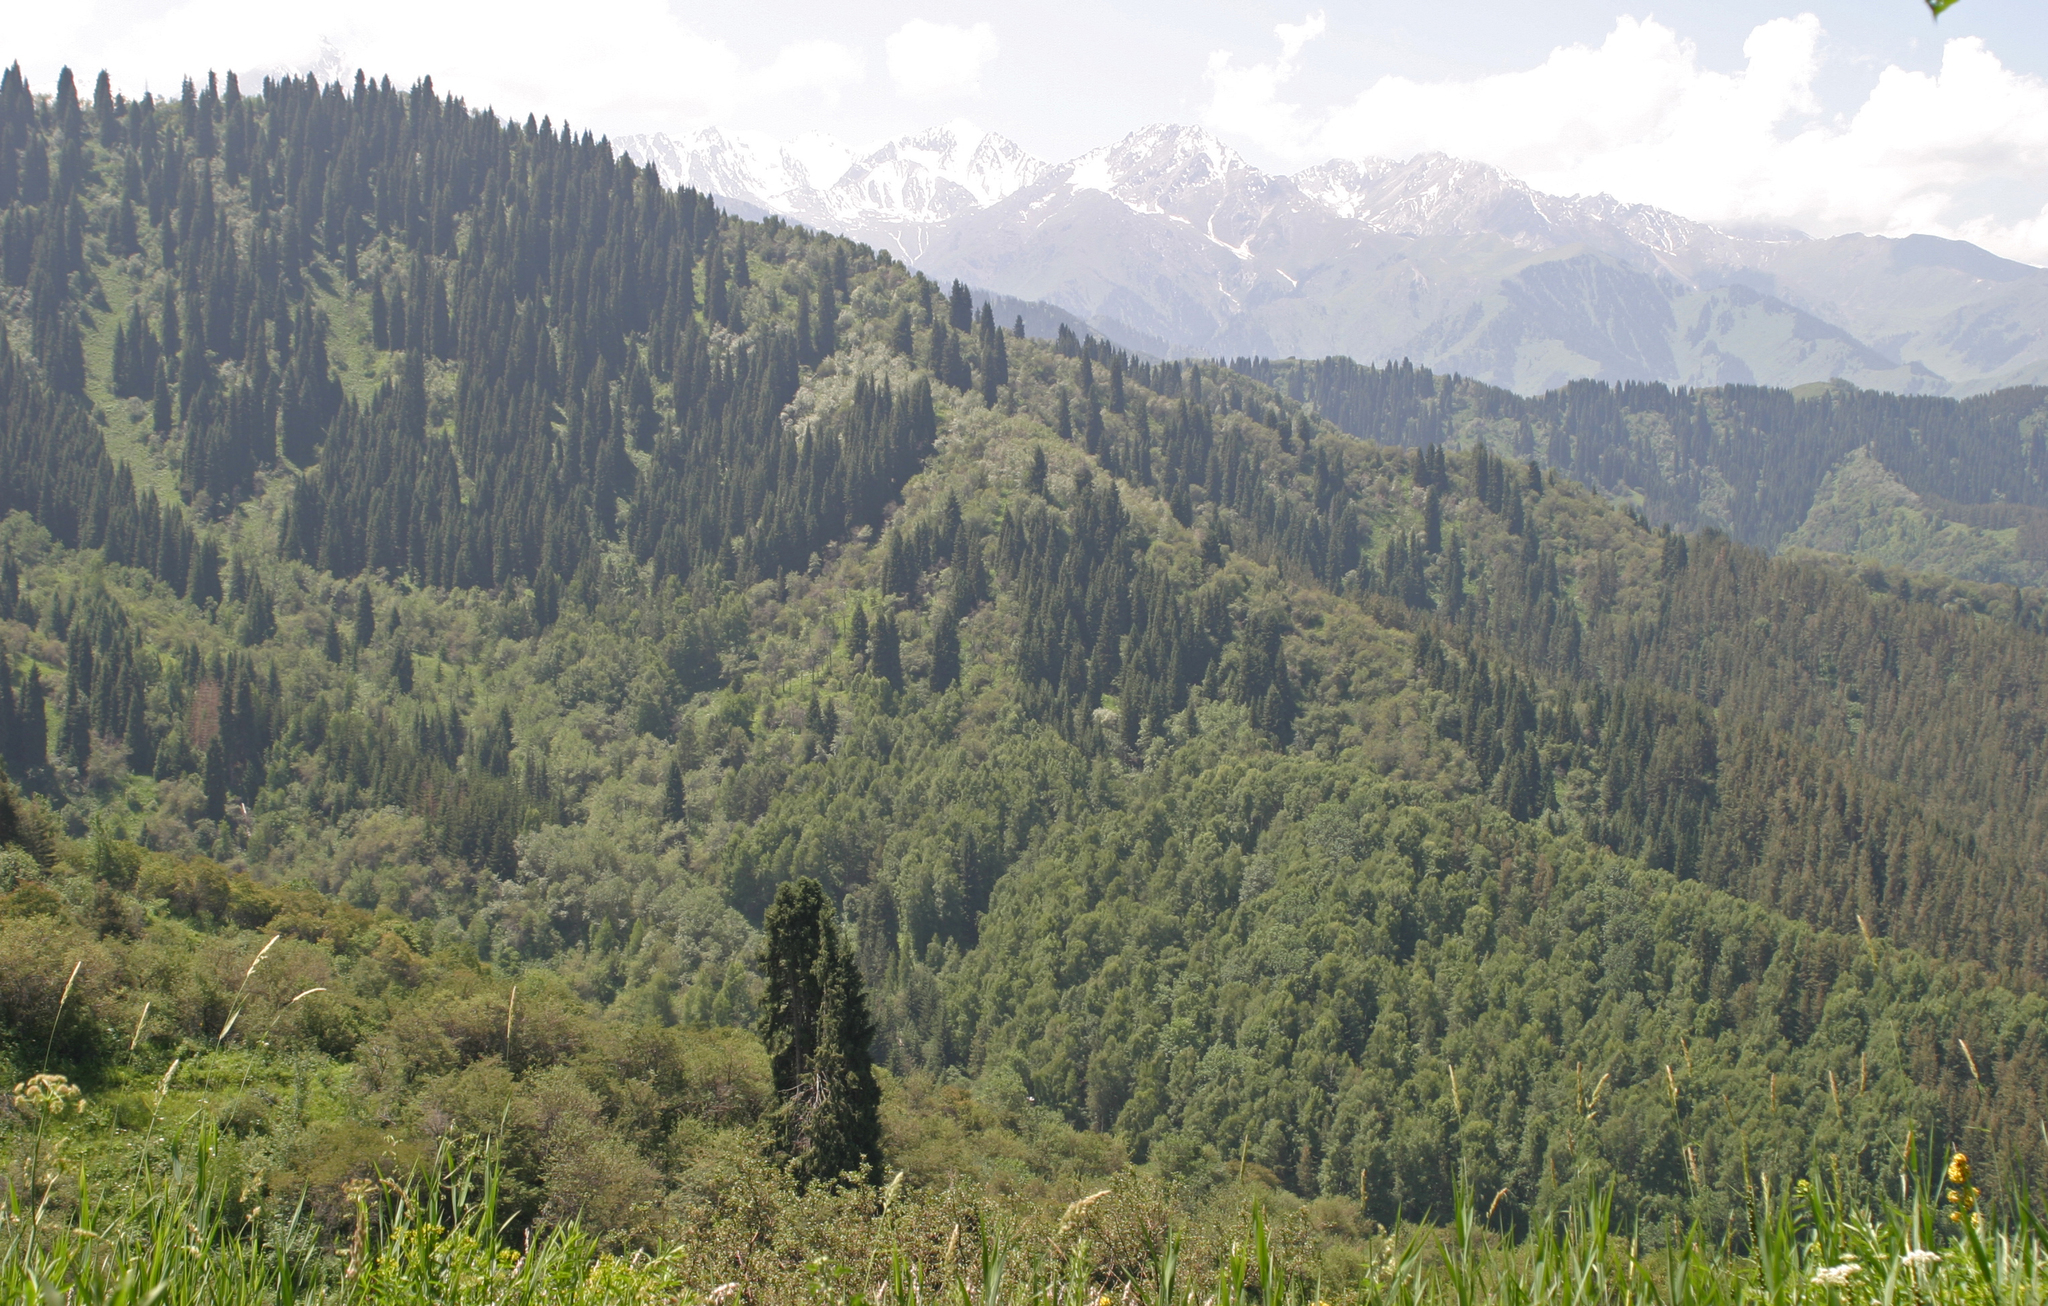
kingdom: Plantae
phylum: Tracheophyta
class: Pinopsida
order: Pinales
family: Pinaceae
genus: Picea
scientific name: Picea schrenkiana
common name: Asian spruce
